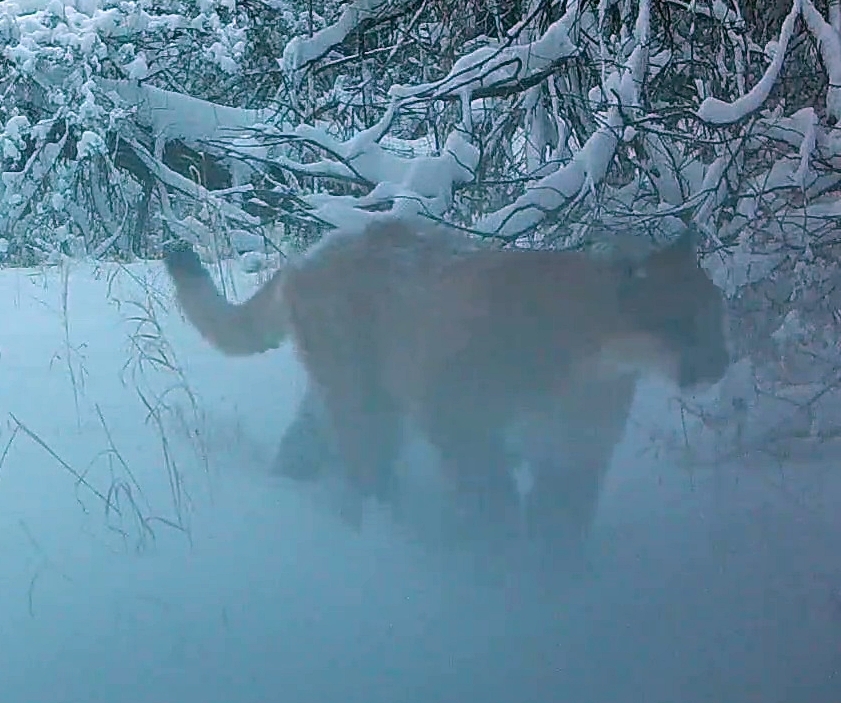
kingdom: Animalia
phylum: Chordata
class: Mammalia
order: Carnivora
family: Felidae
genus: Puma
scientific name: Puma concolor
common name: Puma
